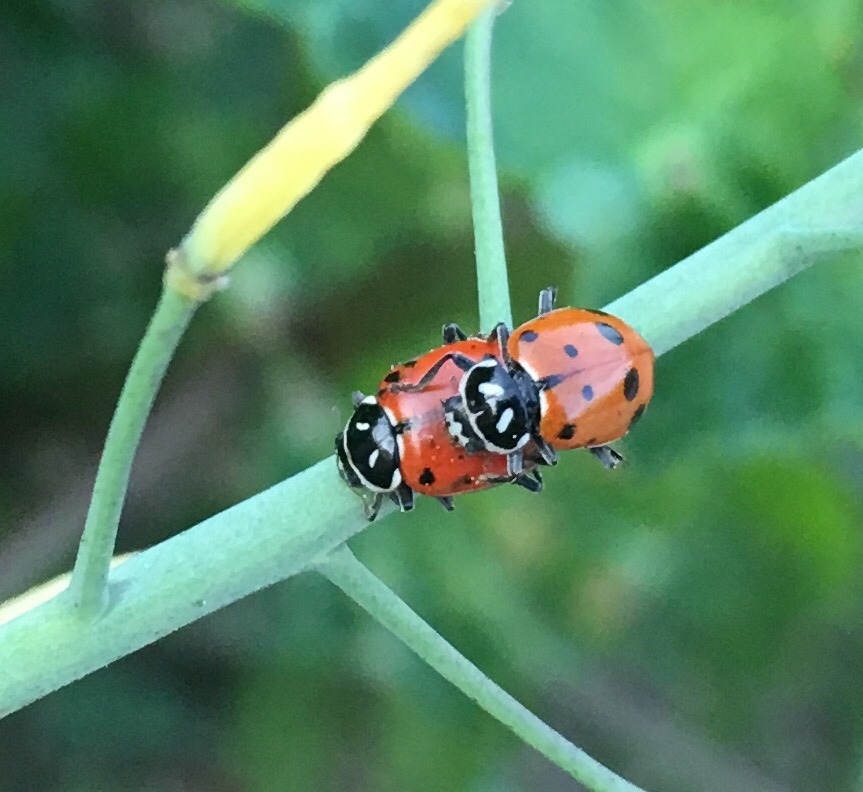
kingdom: Animalia
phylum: Arthropoda
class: Insecta
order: Coleoptera
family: Coccinellidae
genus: Hippodamia
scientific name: Hippodamia convergens
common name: Convergent lady beetle
